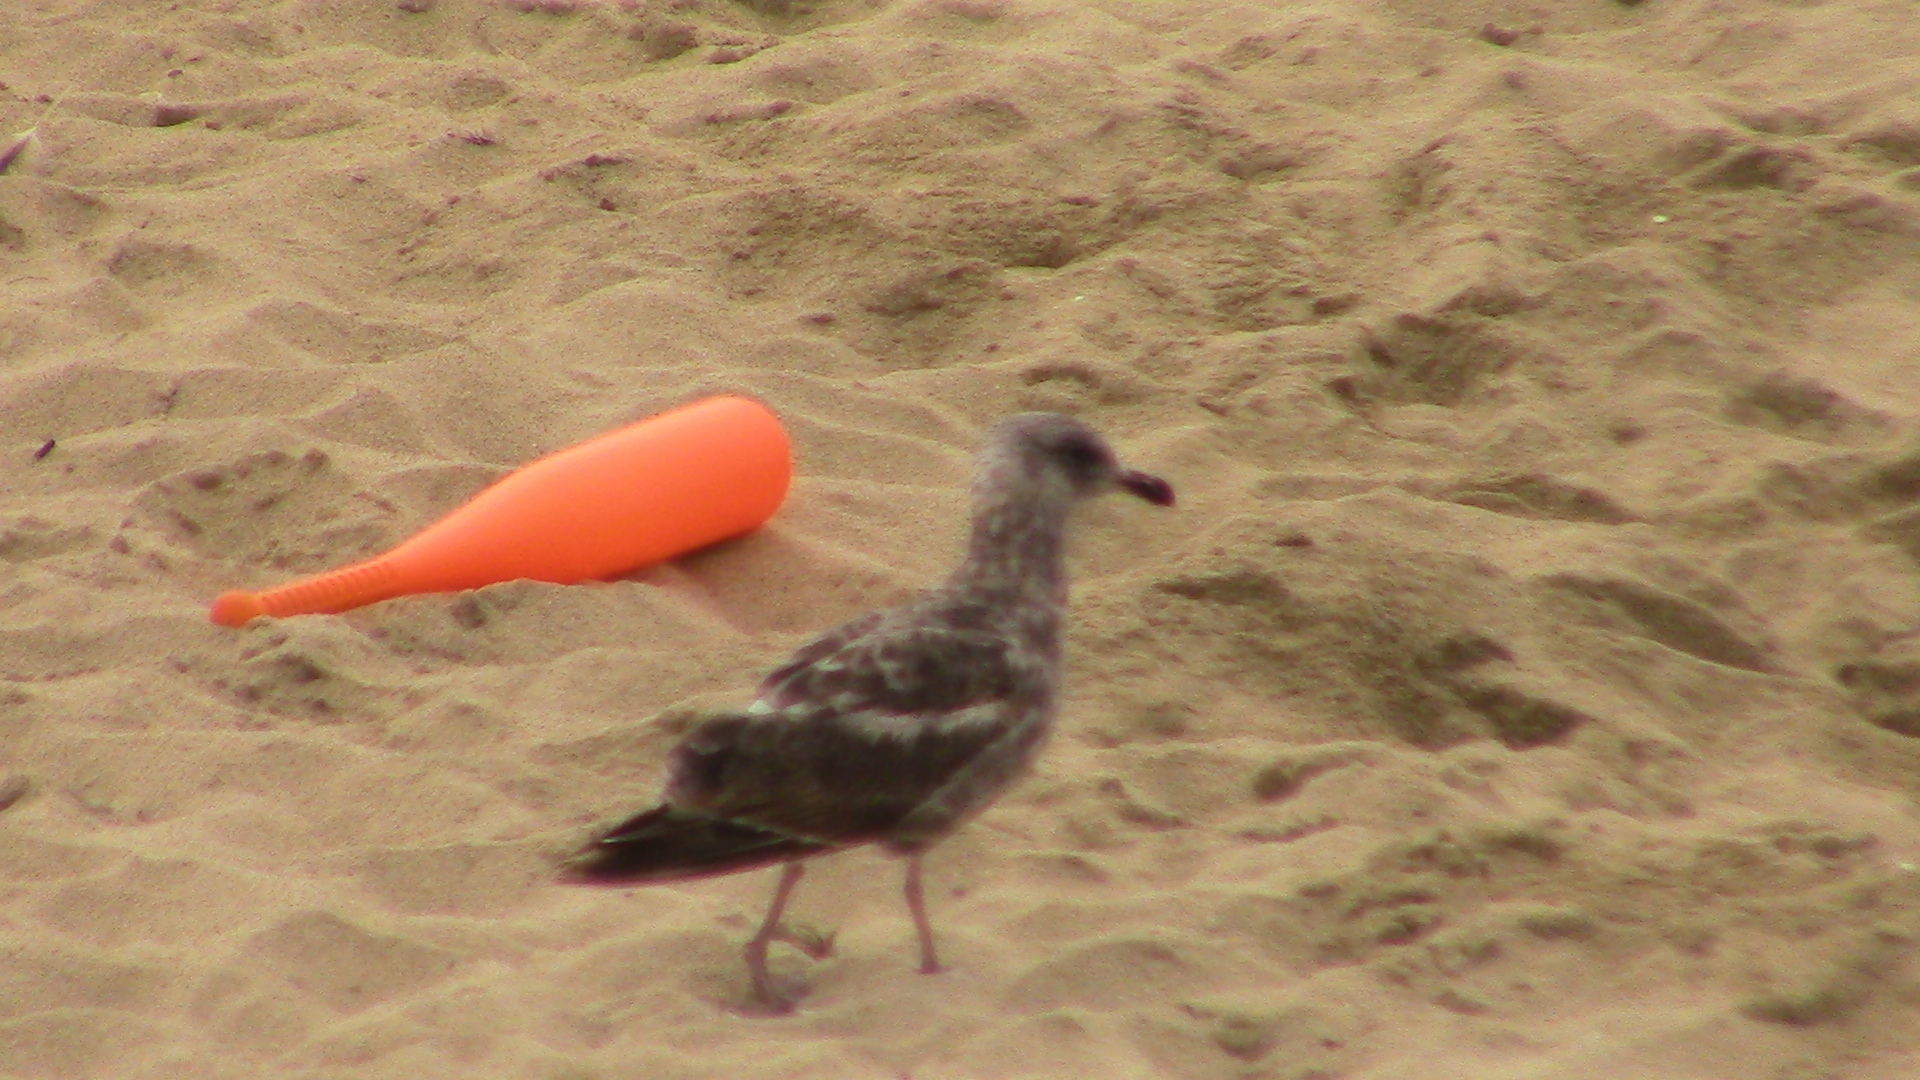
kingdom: Animalia
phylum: Chordata
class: Aves
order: Charadriiformes
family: Laridae
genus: Larus
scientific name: Larus occidentalis
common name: Western gull
